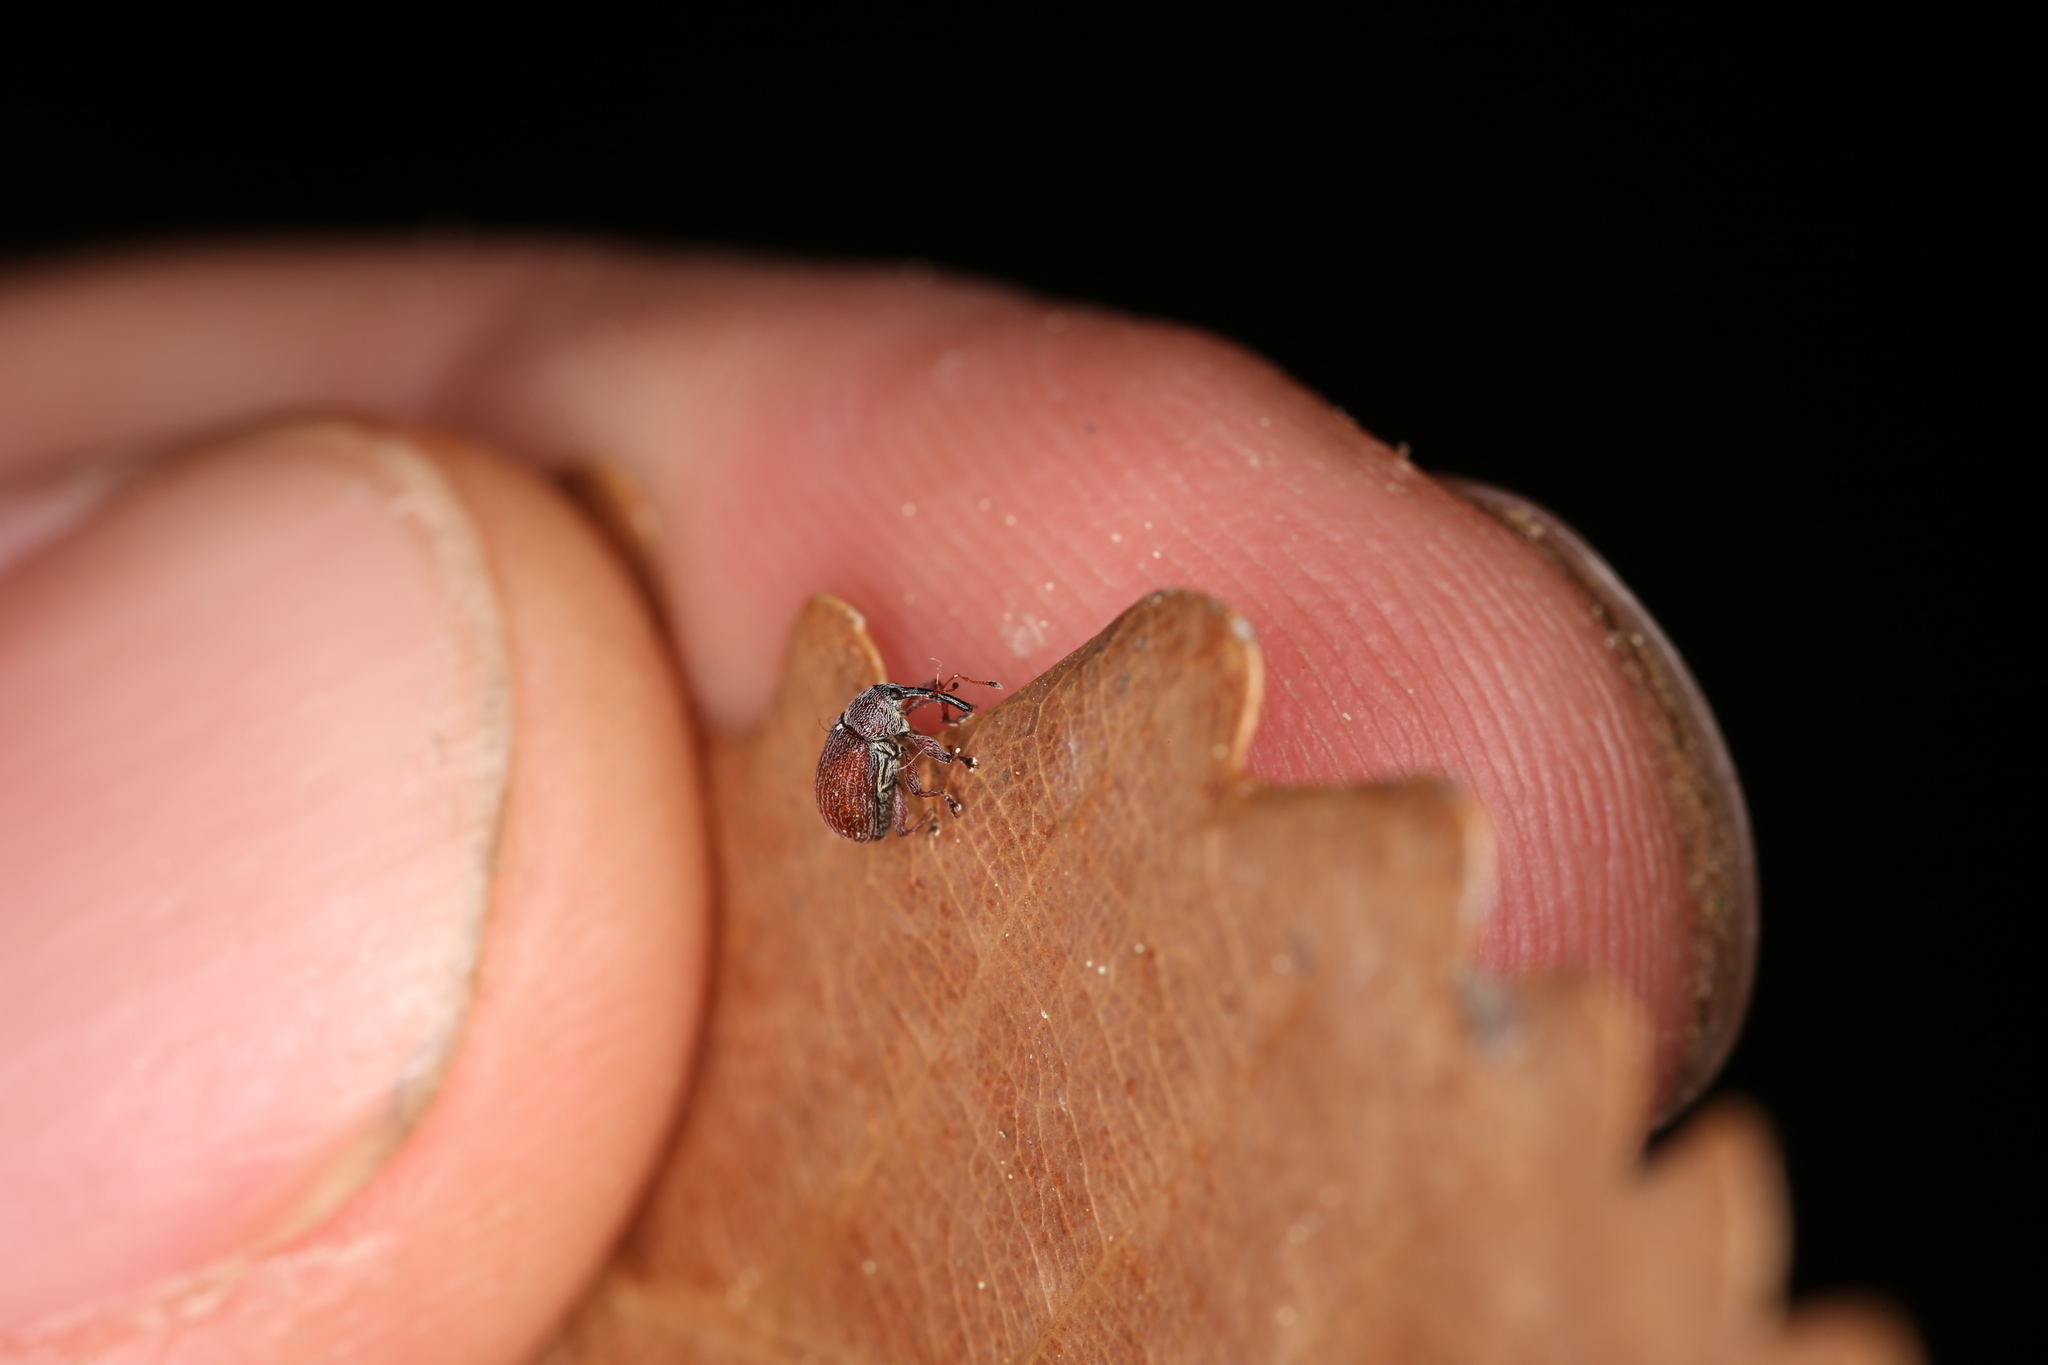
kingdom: Animalia
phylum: Arthropoda
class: Insecta
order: Coleoptera
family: Curculionidae
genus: Anthonomus
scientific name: Anthonomus phyllocola
